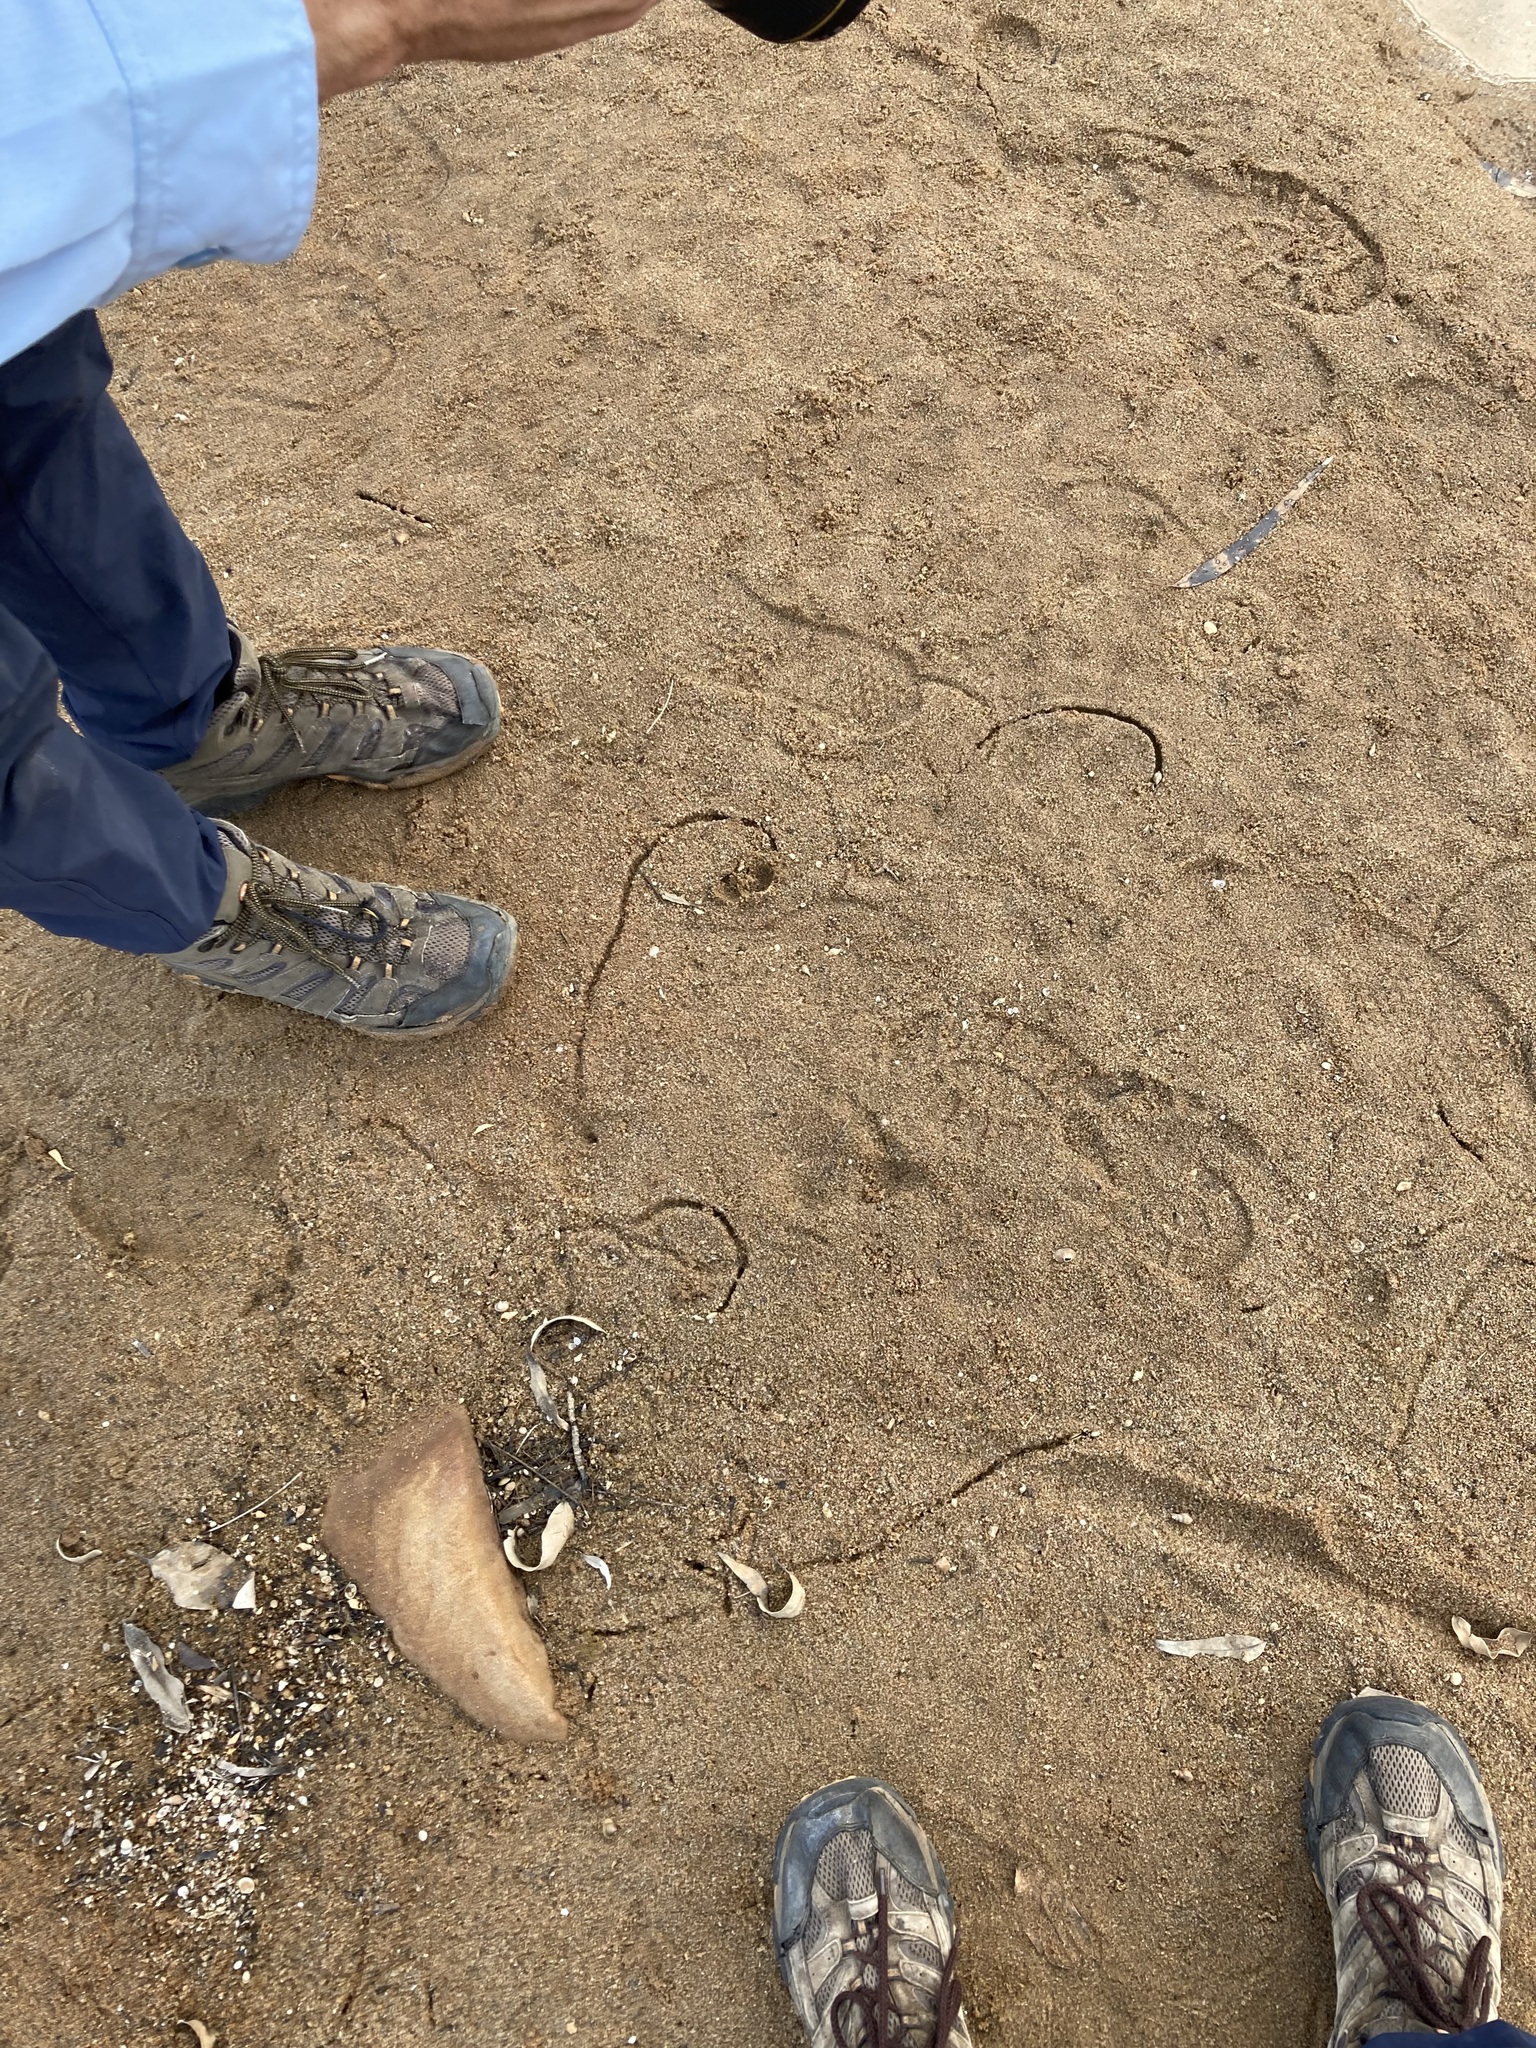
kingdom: Animalia
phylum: Mollusca
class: Bivalvia
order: Venerida
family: Cyrenidae
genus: Corbicula
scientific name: Corbicula australis
